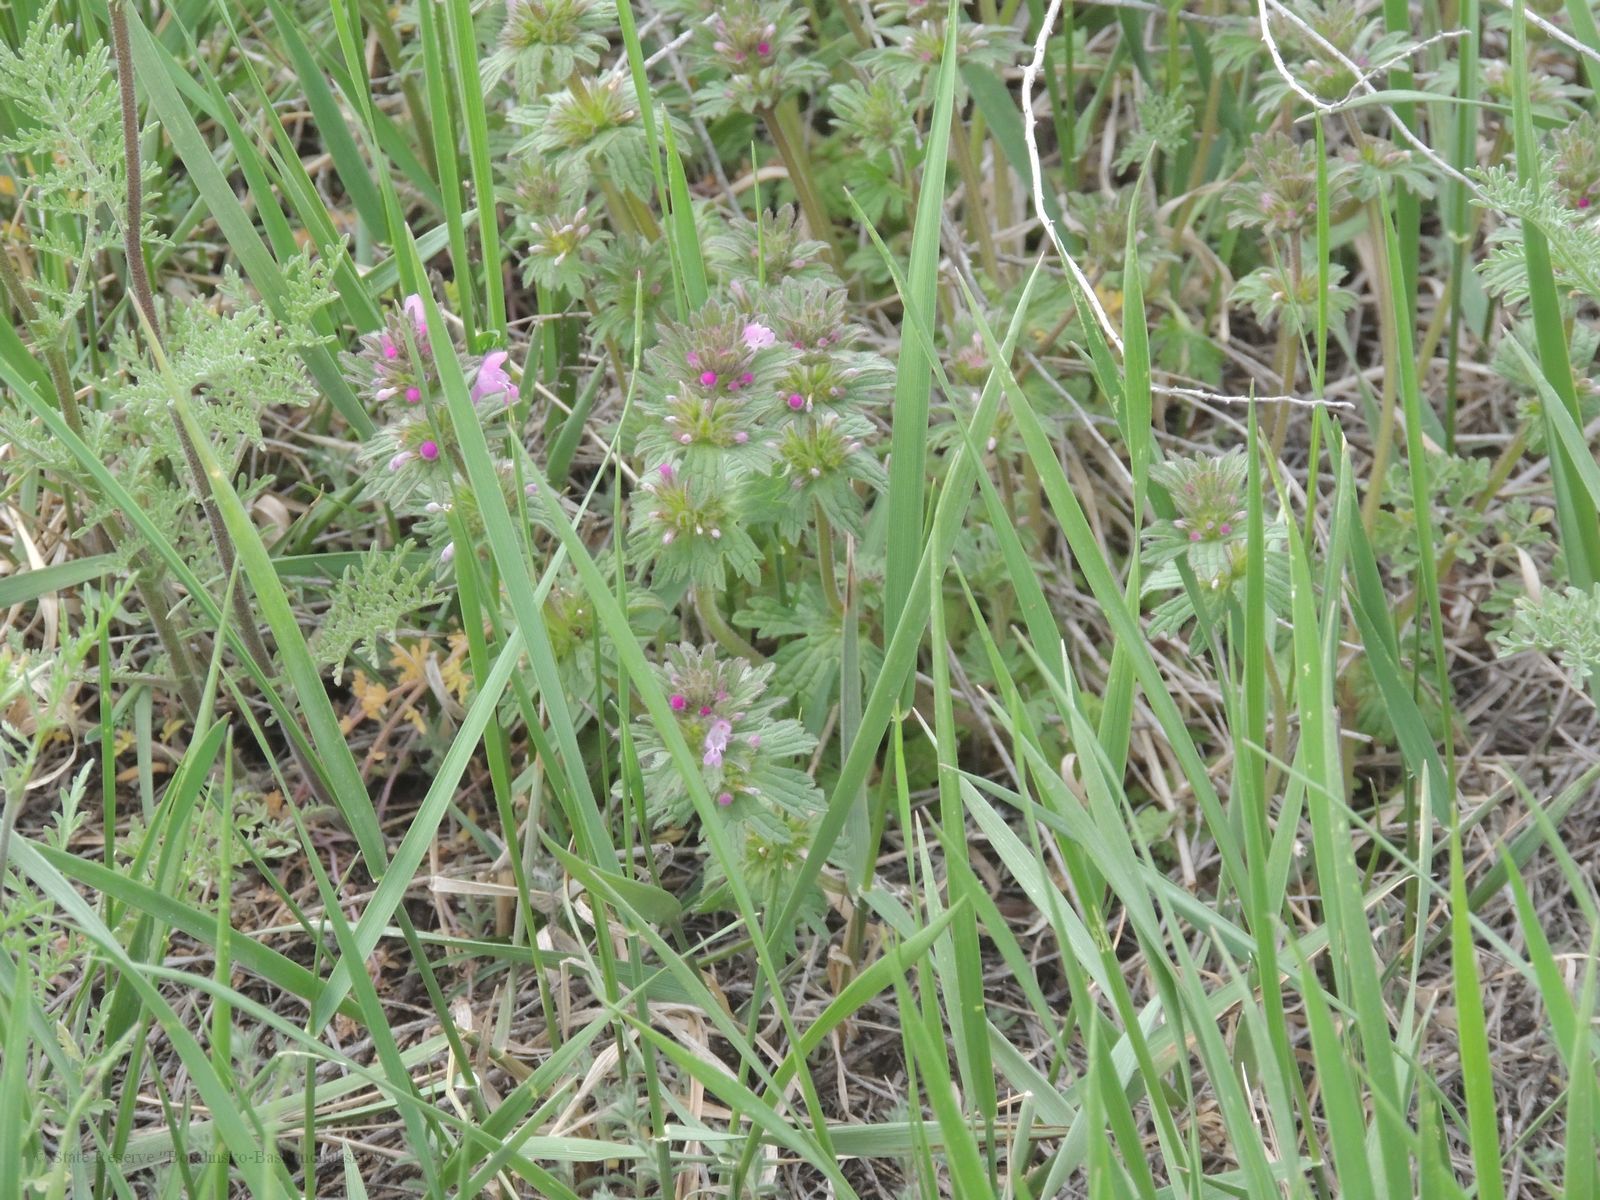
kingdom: Plantae
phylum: Tracheophyta
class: Magnoliopsida
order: Lamiales
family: Lamiaceae
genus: Lamium
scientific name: Lamium amplexicaule
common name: Henbit dead-nettle
